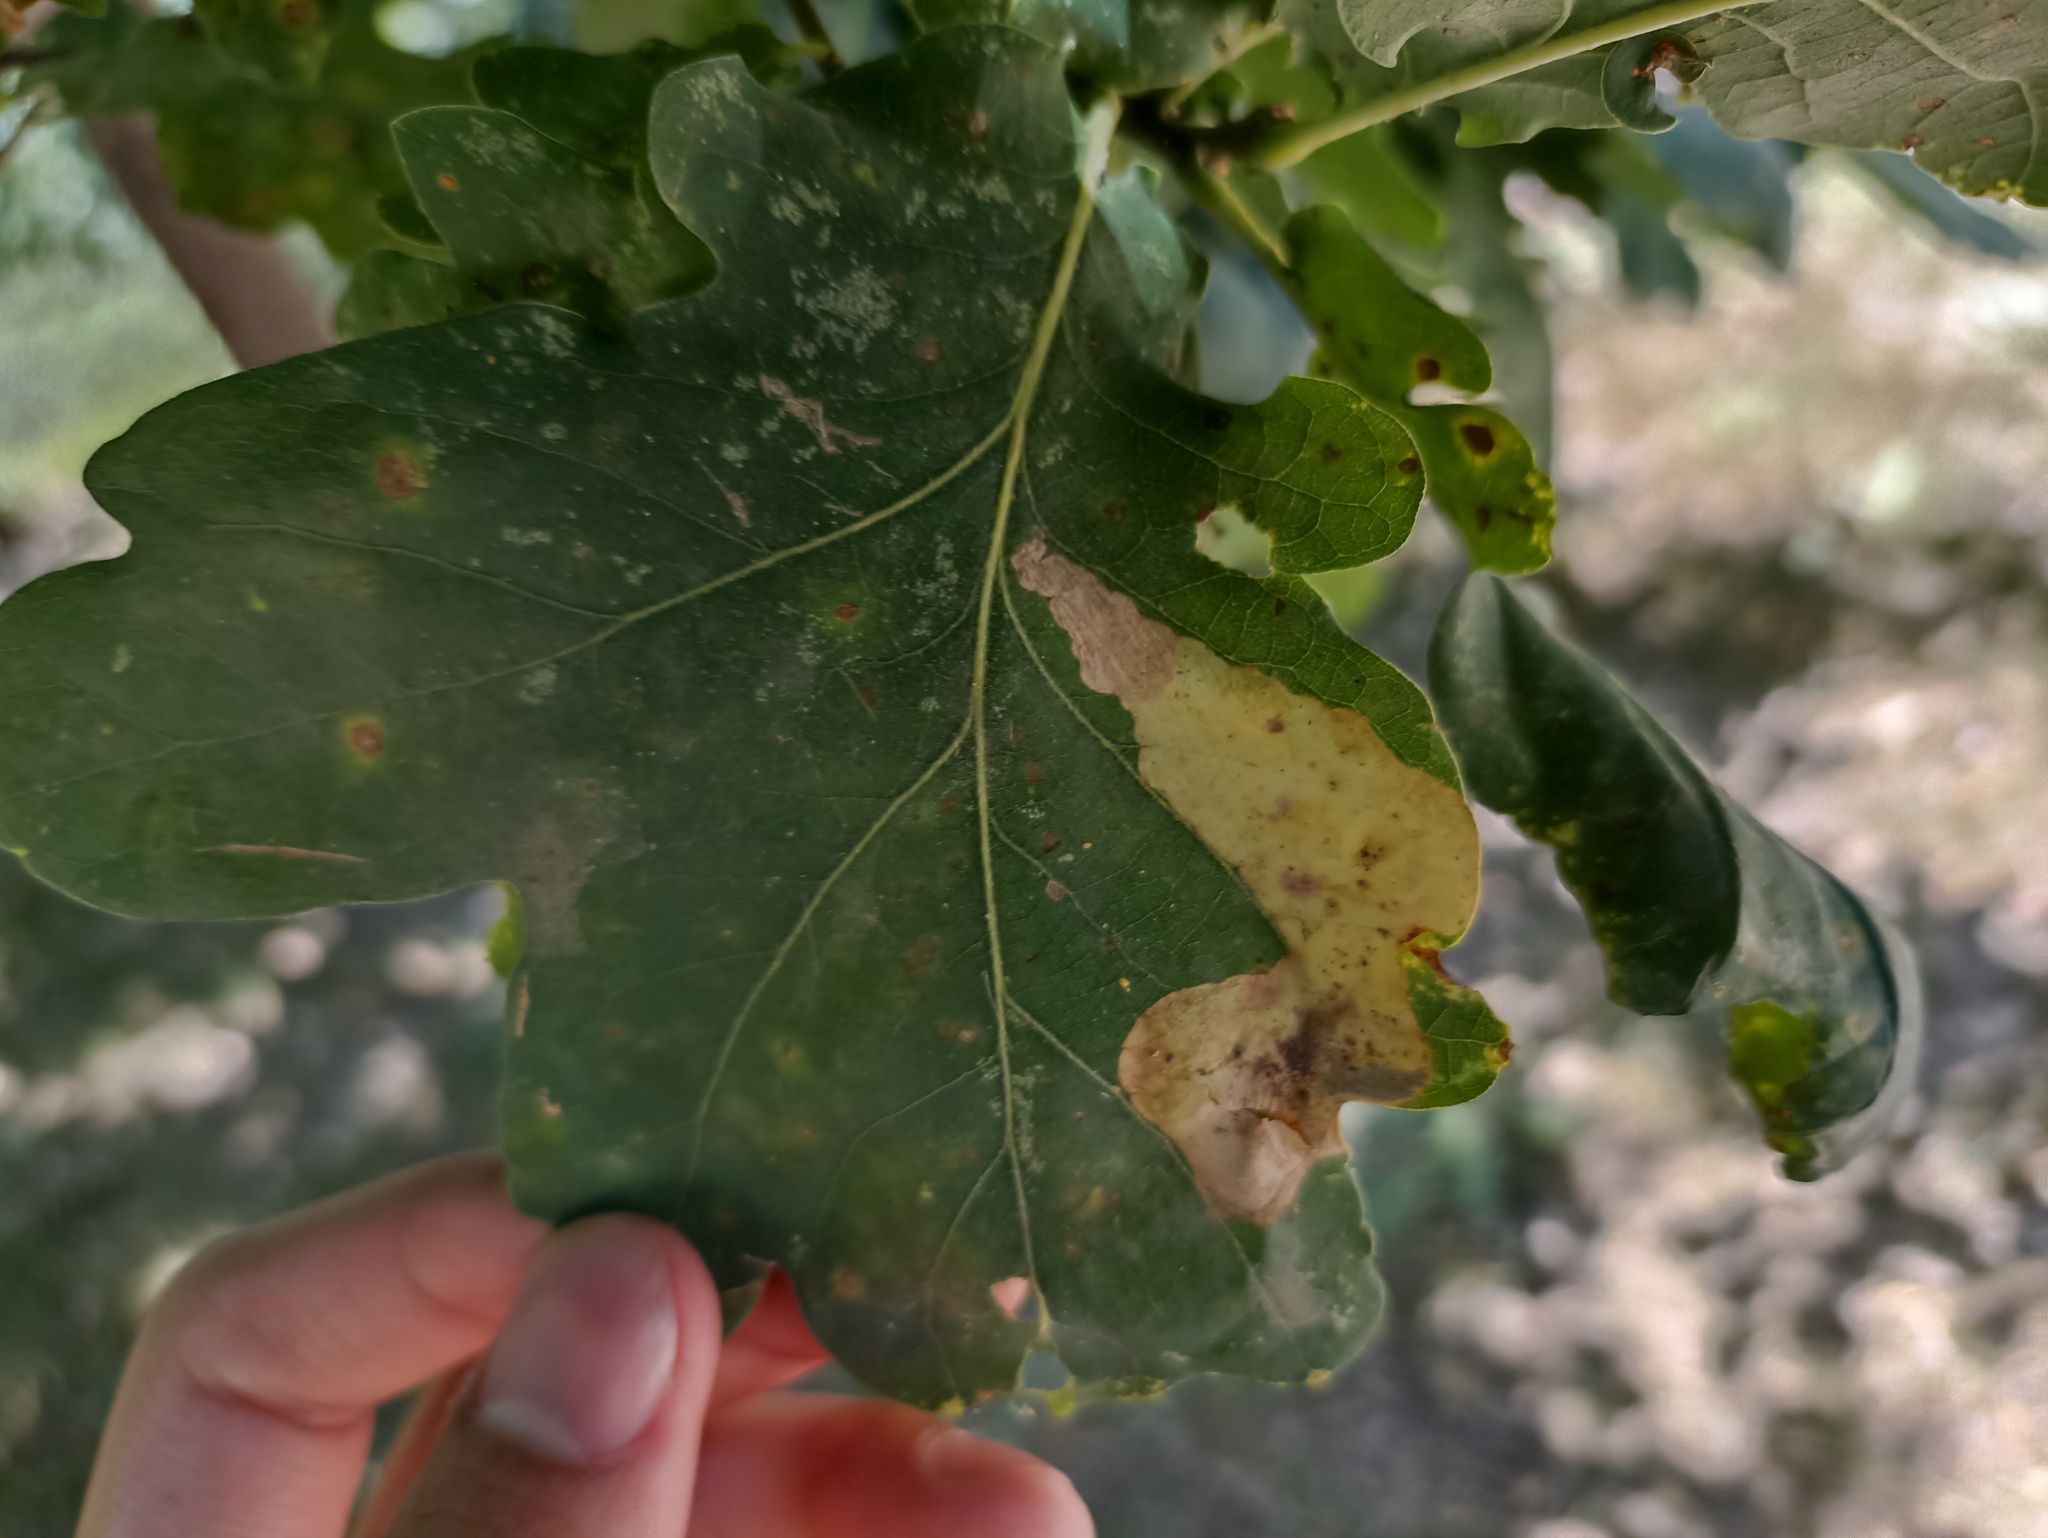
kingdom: Animalia
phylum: Arthropoda
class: Insecta
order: Hymenoptera
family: Tenthredinidae
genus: Profenusa
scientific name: Profenusa pygmaea
